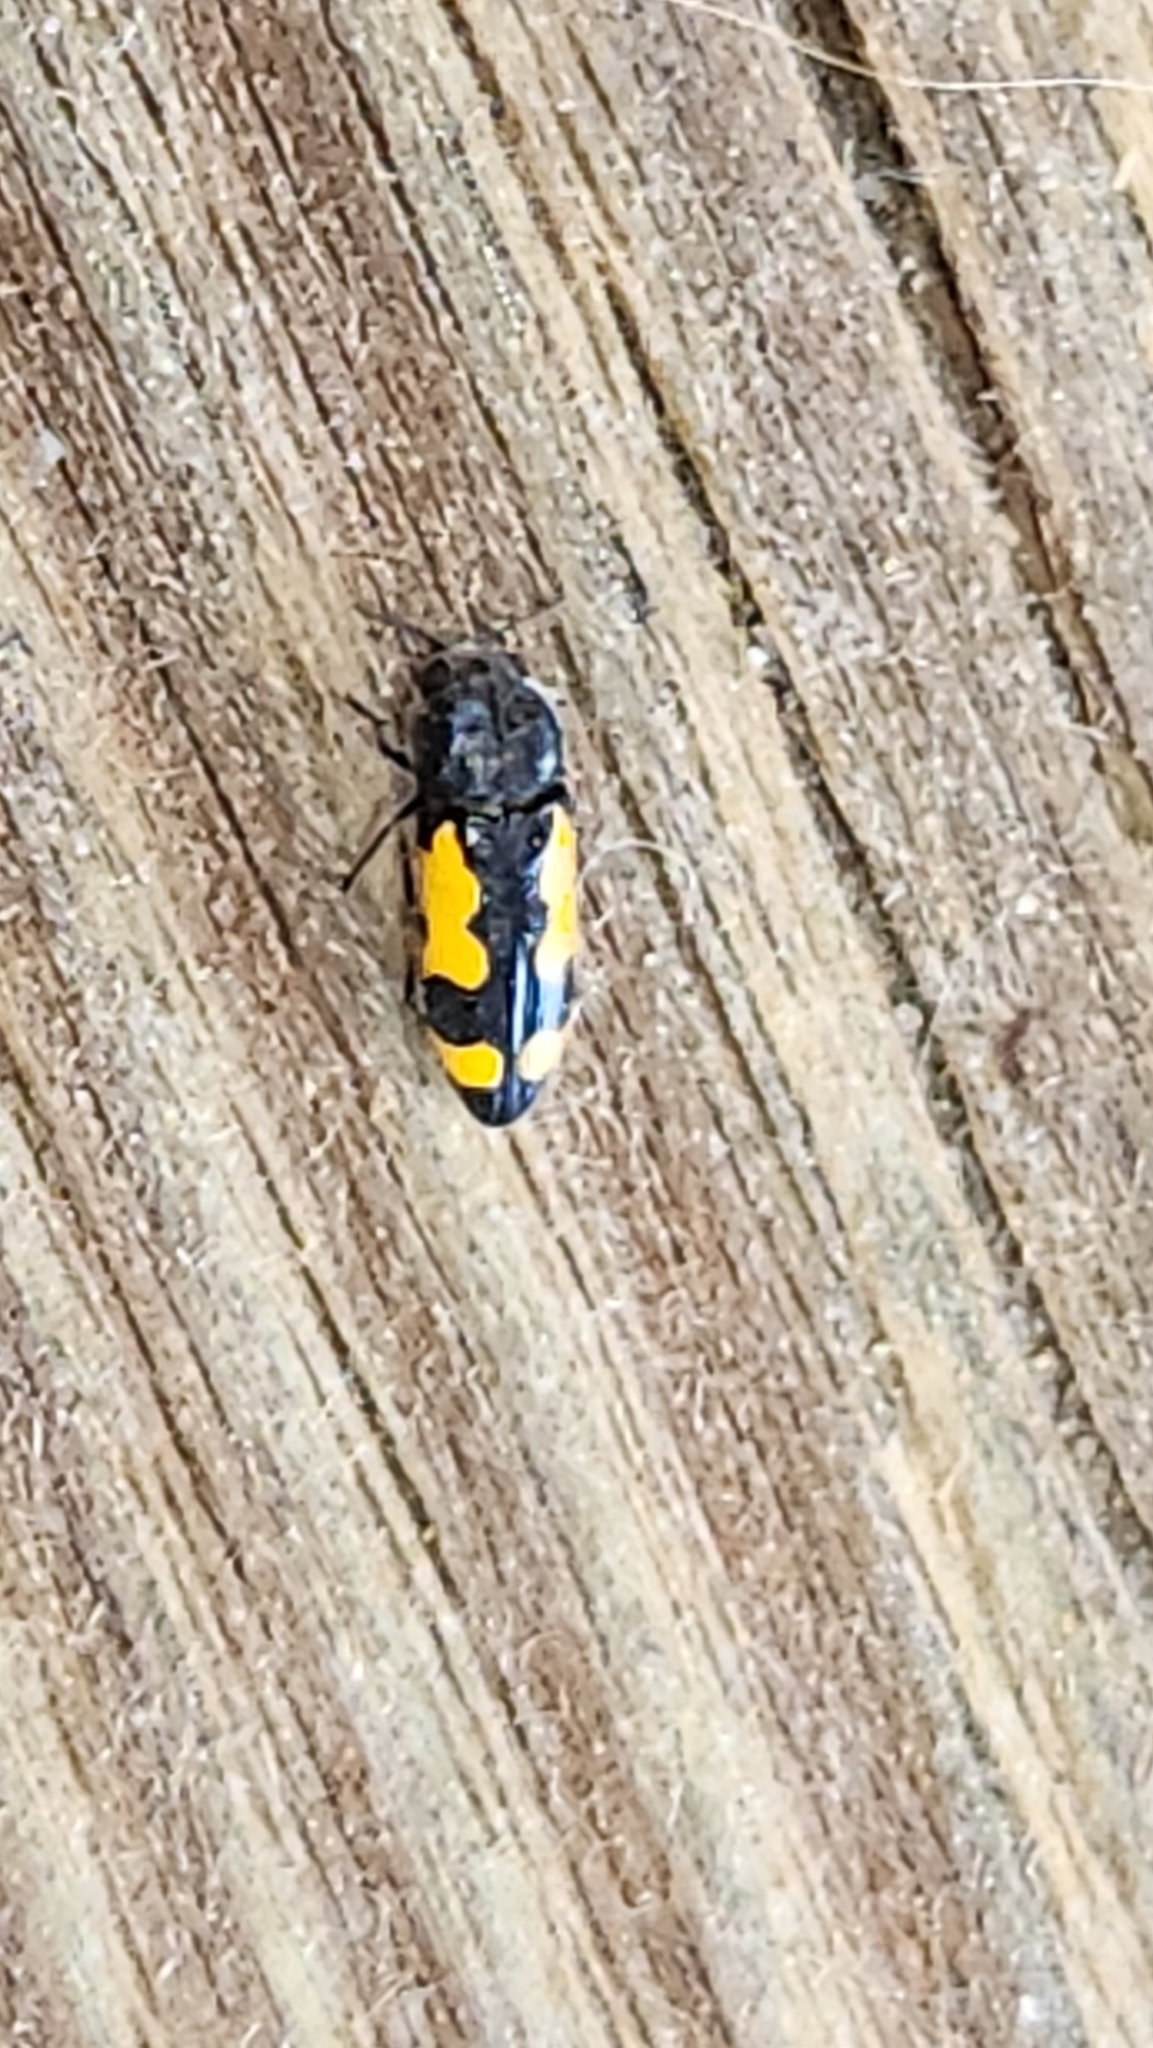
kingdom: Animalia
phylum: Arthropoda
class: Insecta
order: Coleoptera
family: Buprestidae
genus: Ptosima
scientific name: Ptosima gibbicollis
